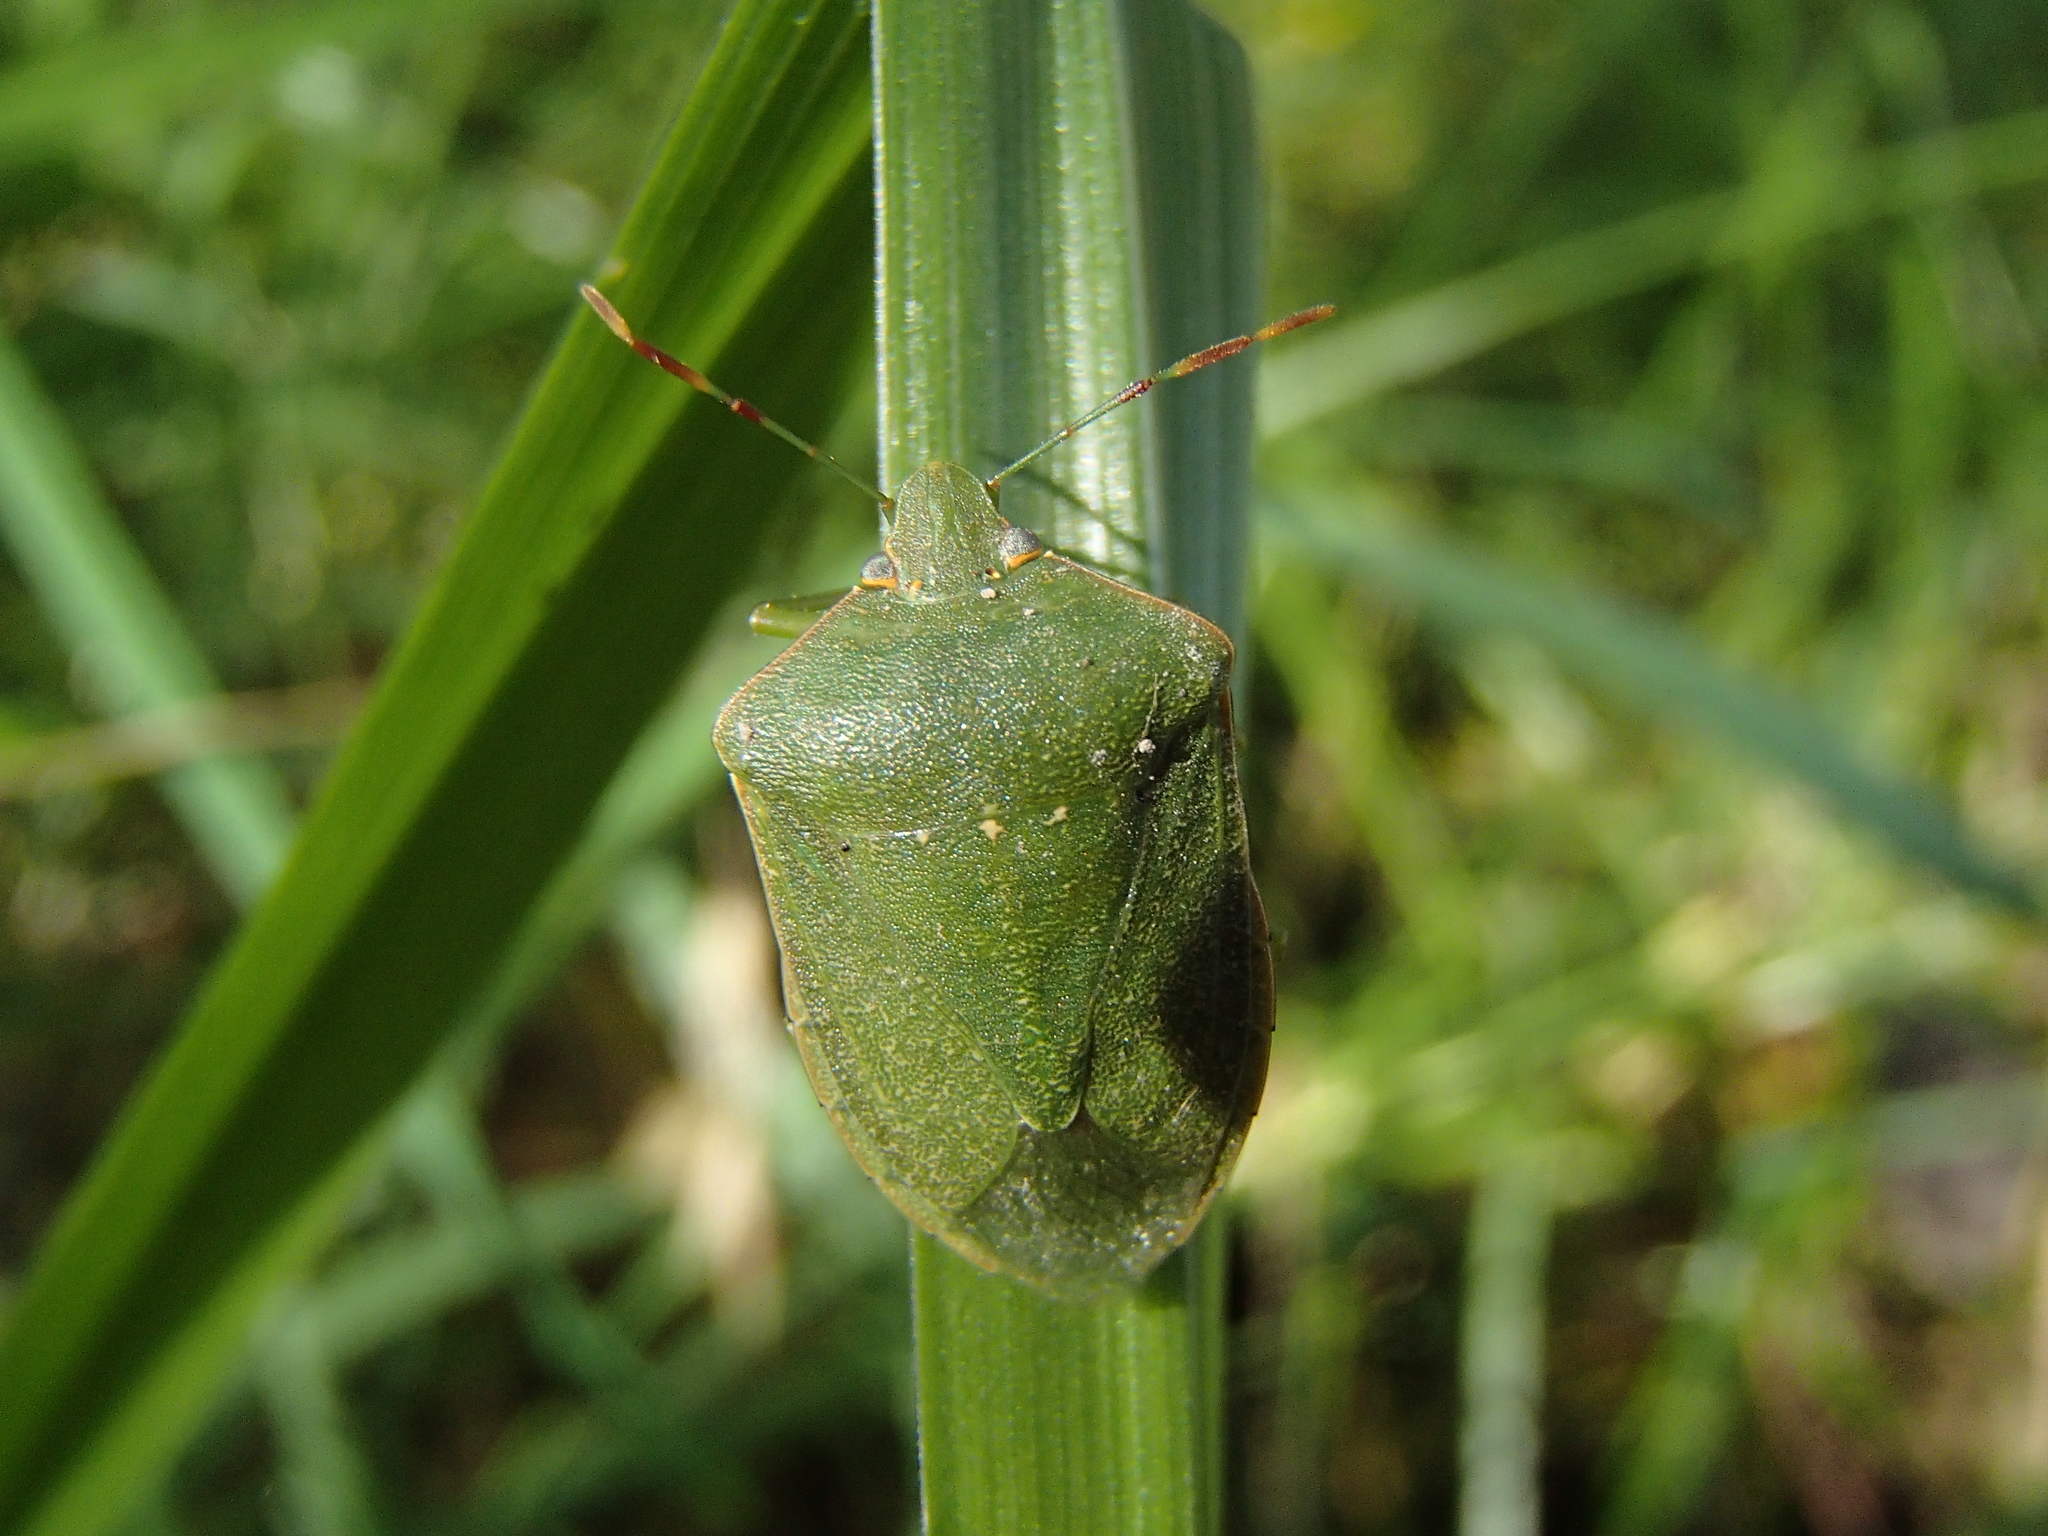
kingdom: Animalia
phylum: Arthropoda
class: Insecta
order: Hemiptera
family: Pentatomidae
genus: Nezara
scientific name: Nezara viridula
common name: Southern green stink bug
